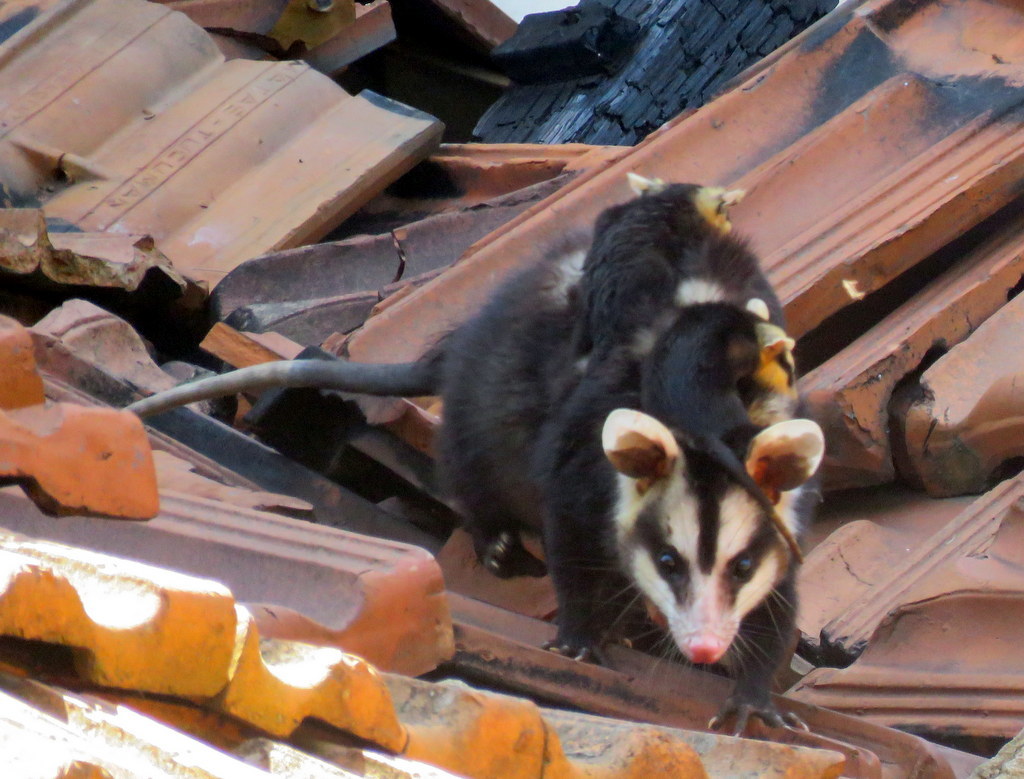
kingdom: Animalia
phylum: Chordata
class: Mammalia
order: Didelphimorphia
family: Didelphidae
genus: Didelphis
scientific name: Didelphis albiventris
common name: White-eared opossum
